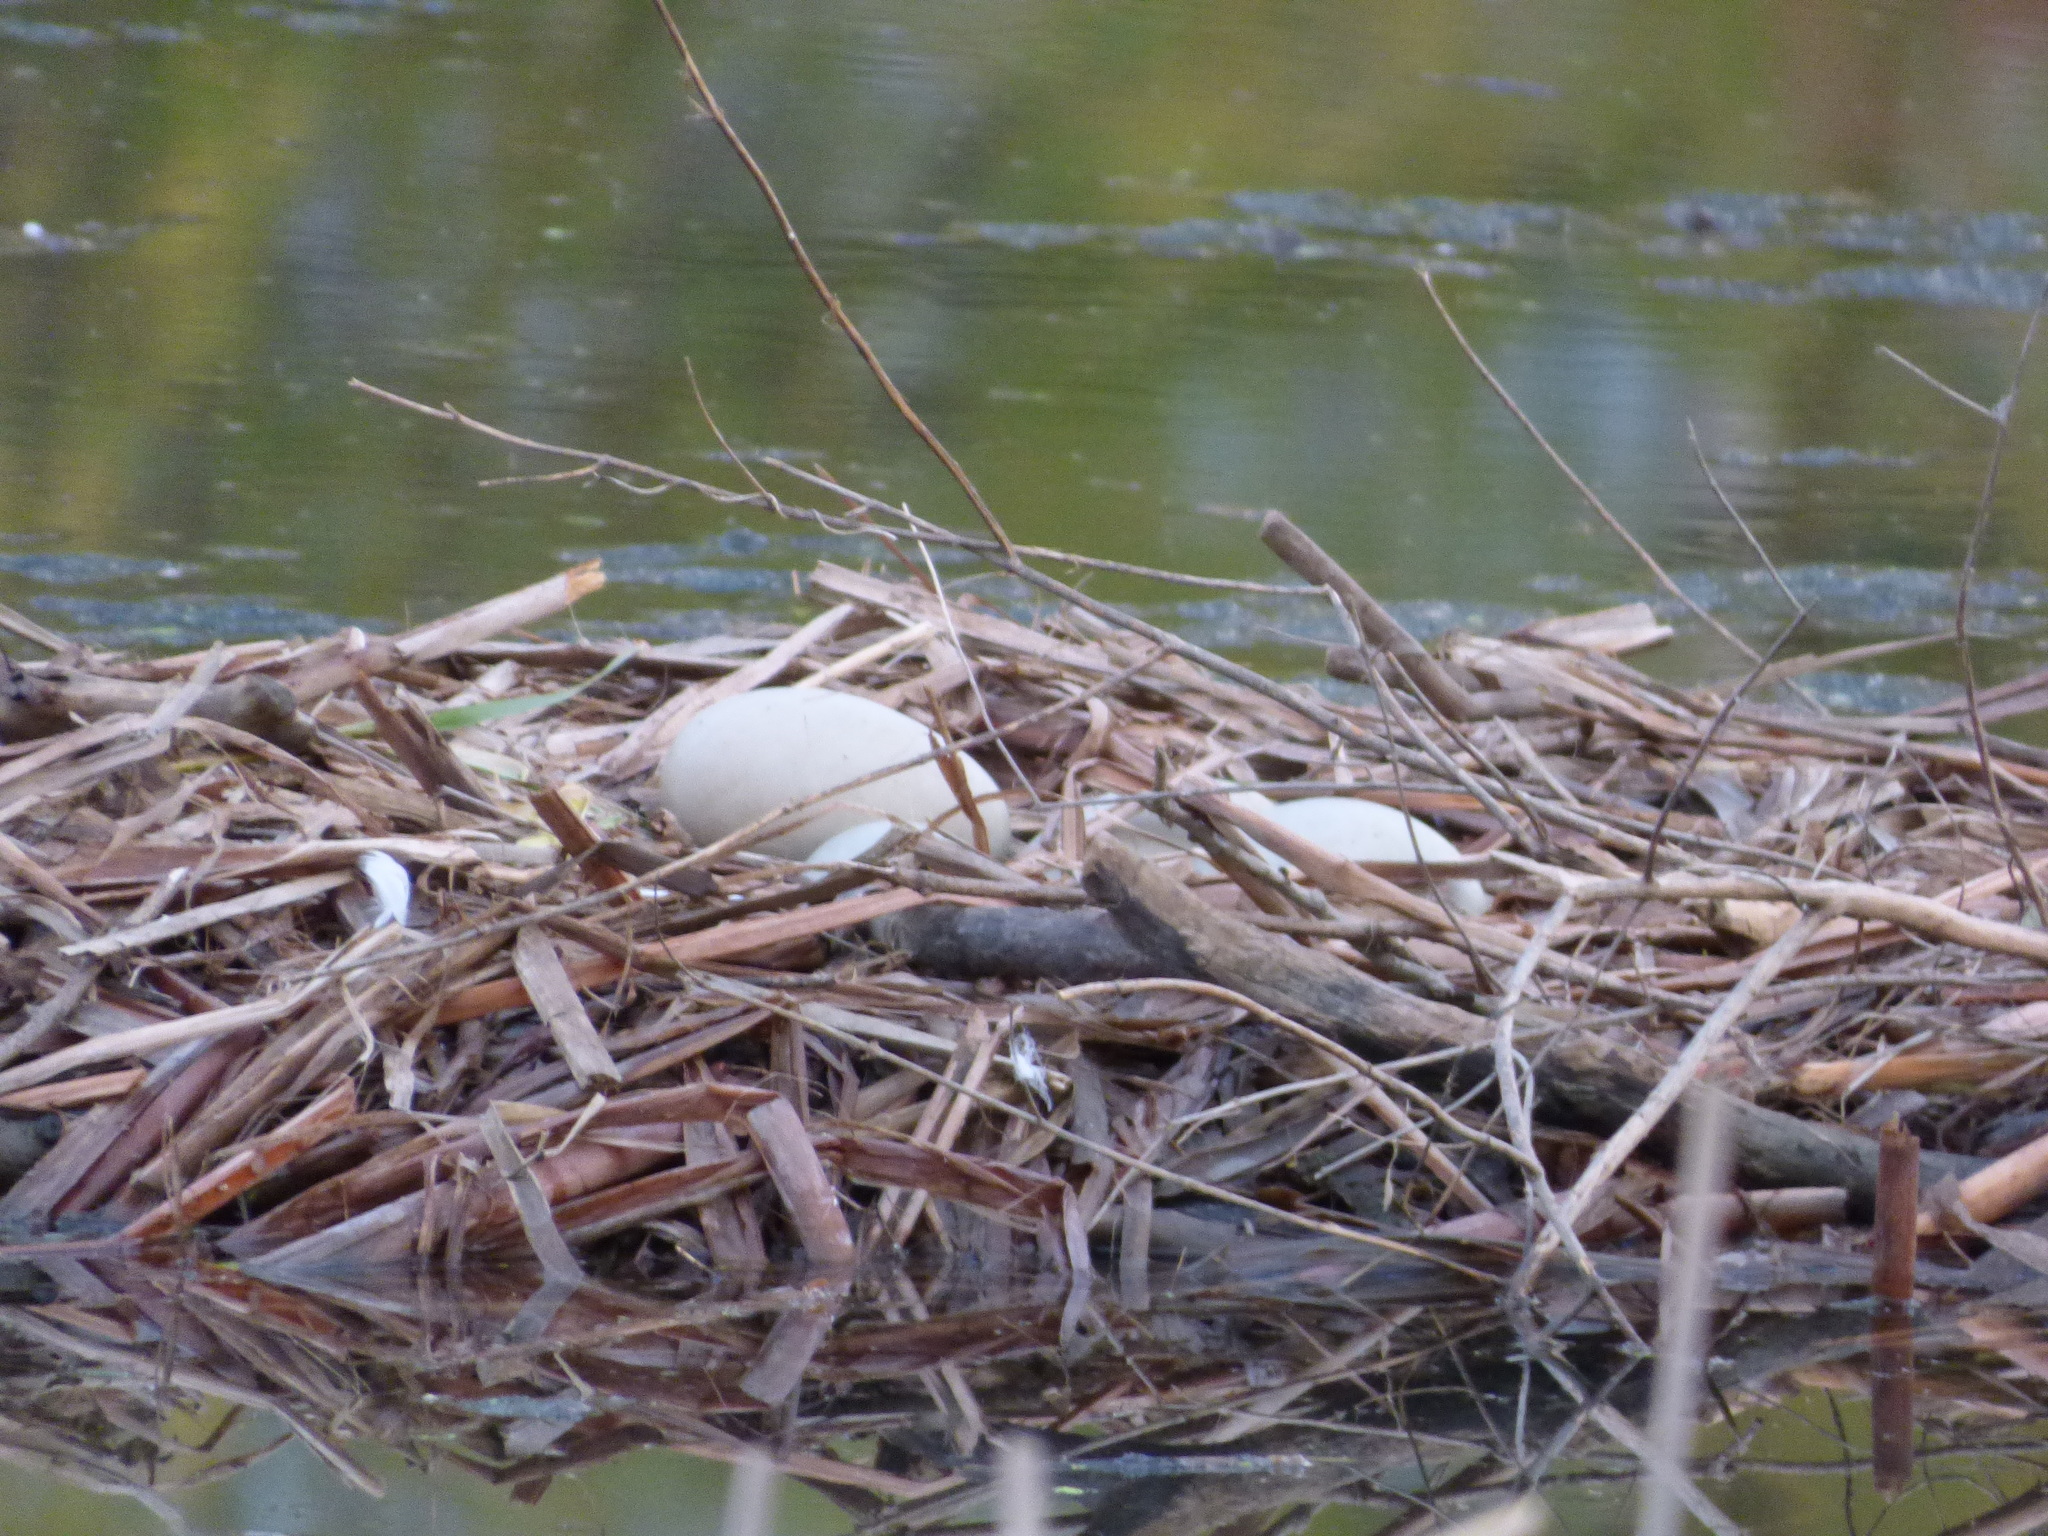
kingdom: Animalia
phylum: Chordata
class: Aves
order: Anseriformes
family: Anatidae
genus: Cygnus
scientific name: Cygnus olor
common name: Mute swan
